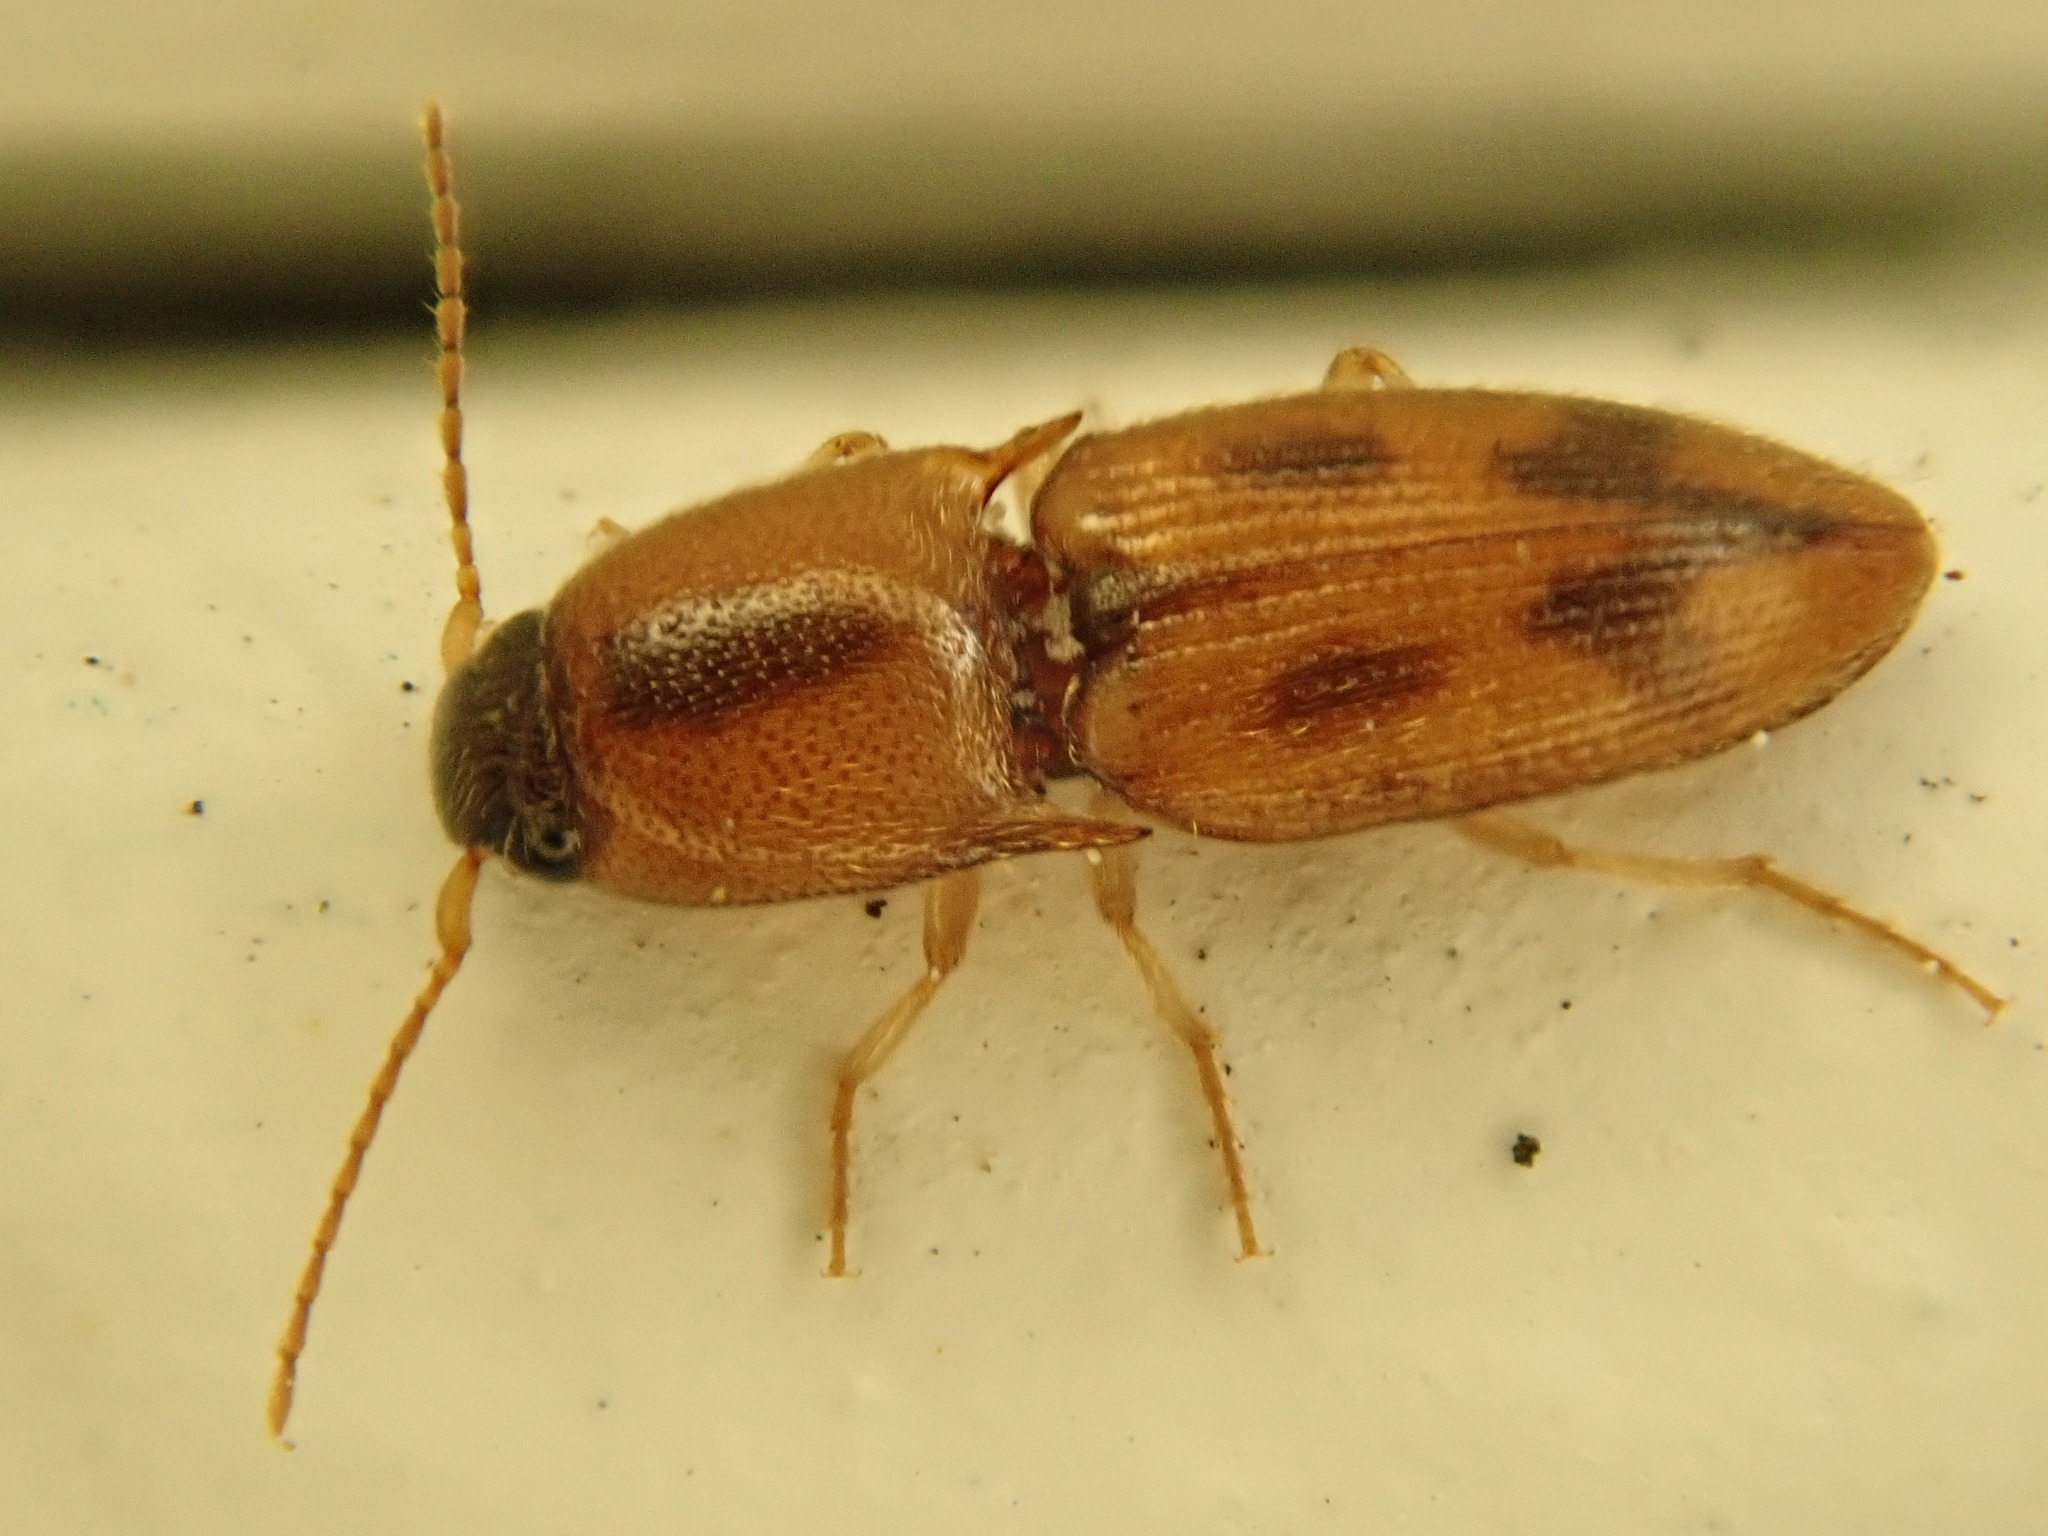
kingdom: Animalia
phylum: Arthropoda
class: Insecta
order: Coleoptera
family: Elateridae
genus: Aeolus
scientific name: Aeolus mellillus
